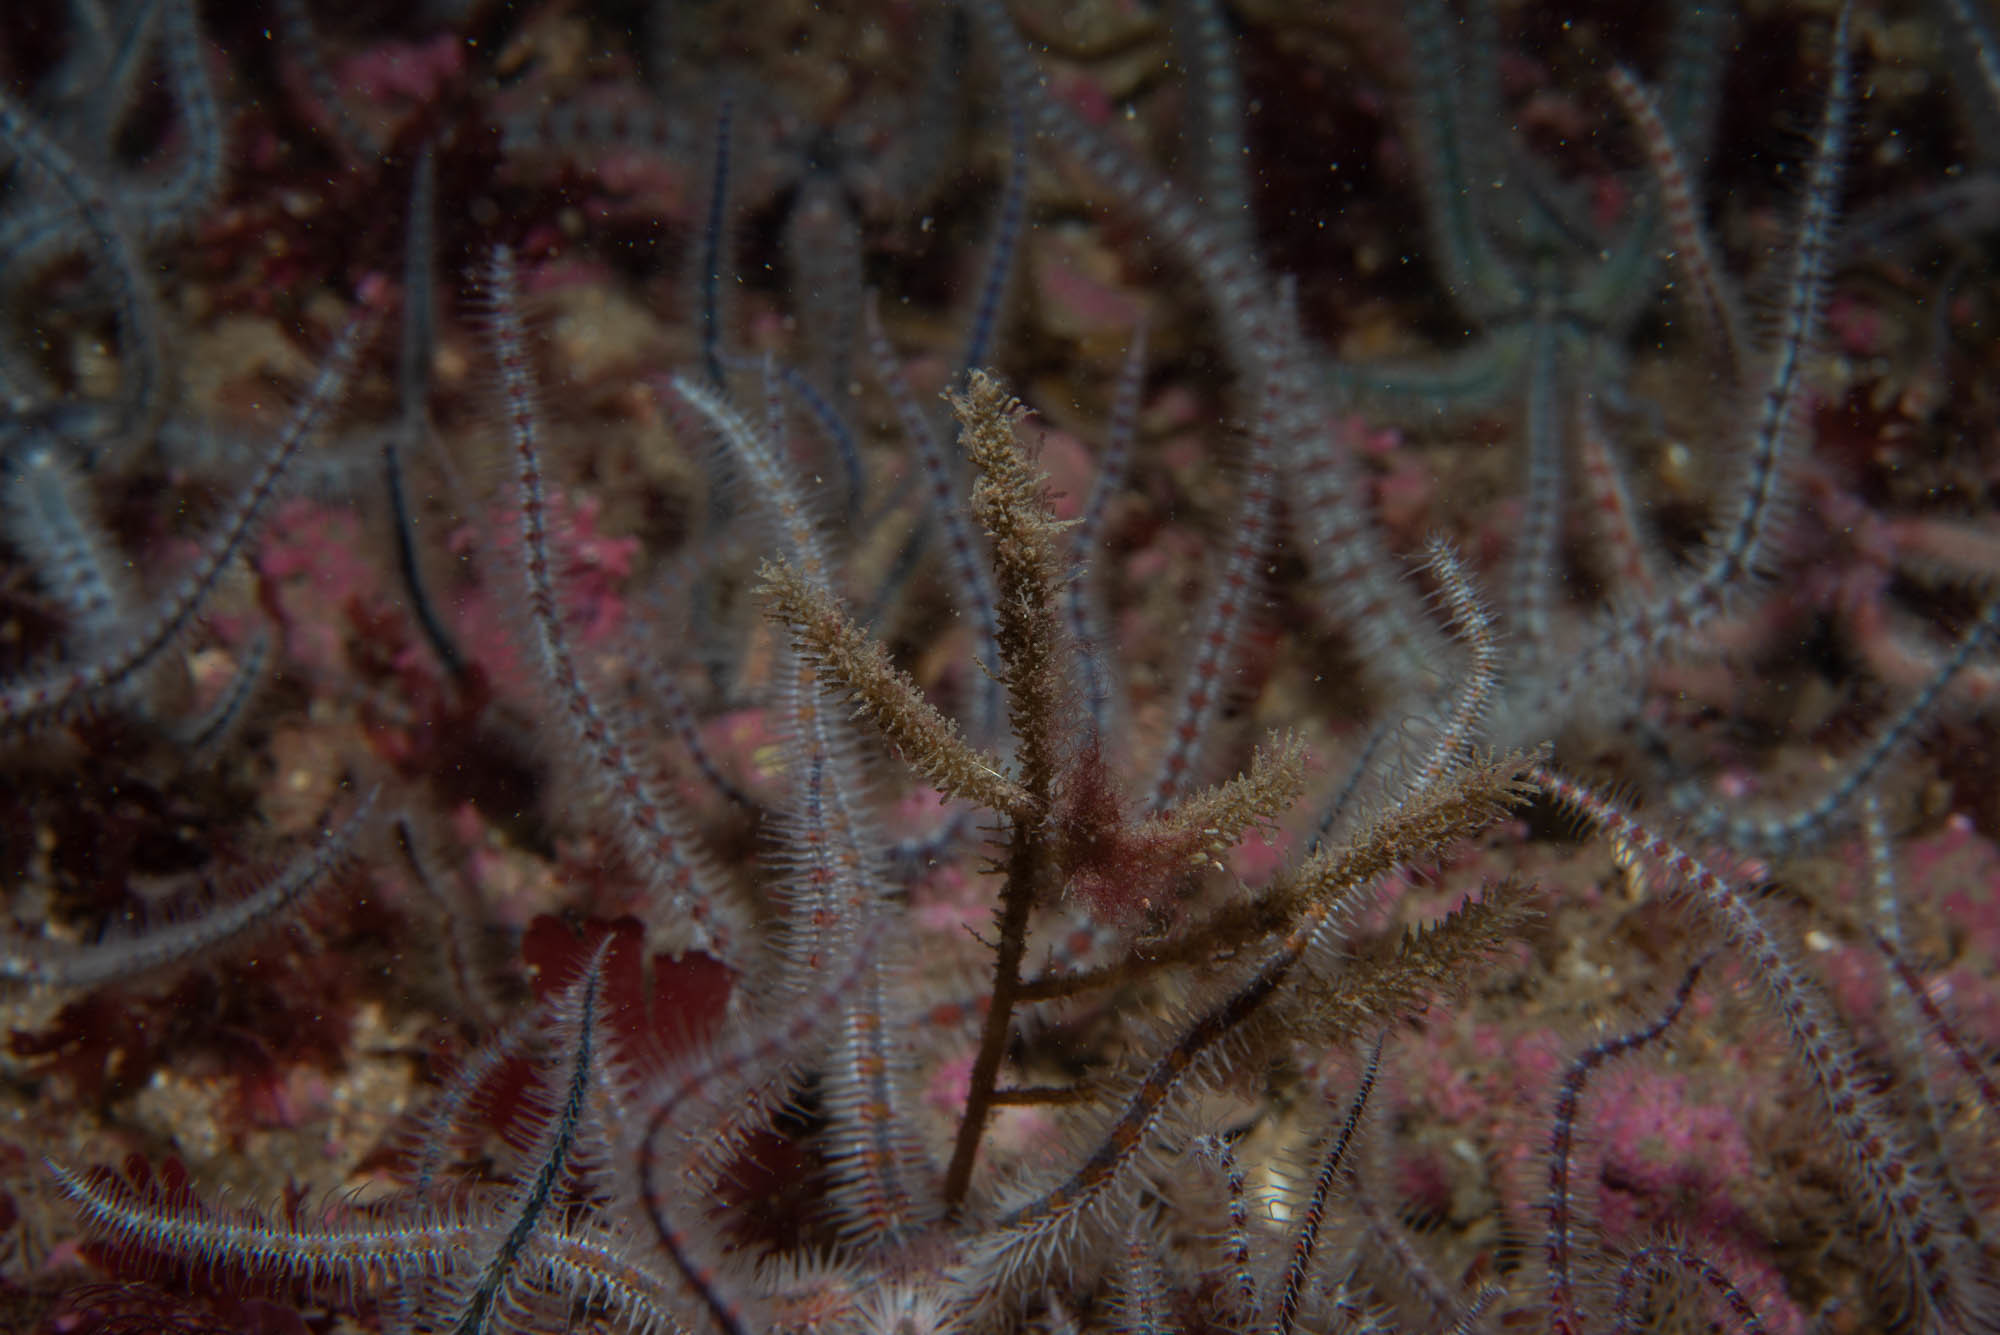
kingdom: Animalia
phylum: Cnidaria
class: Hydrozoa
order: Leptothecata
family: Plumulariidae
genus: Nemertesia
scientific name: Nemertesia ramosa
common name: Hydroid
